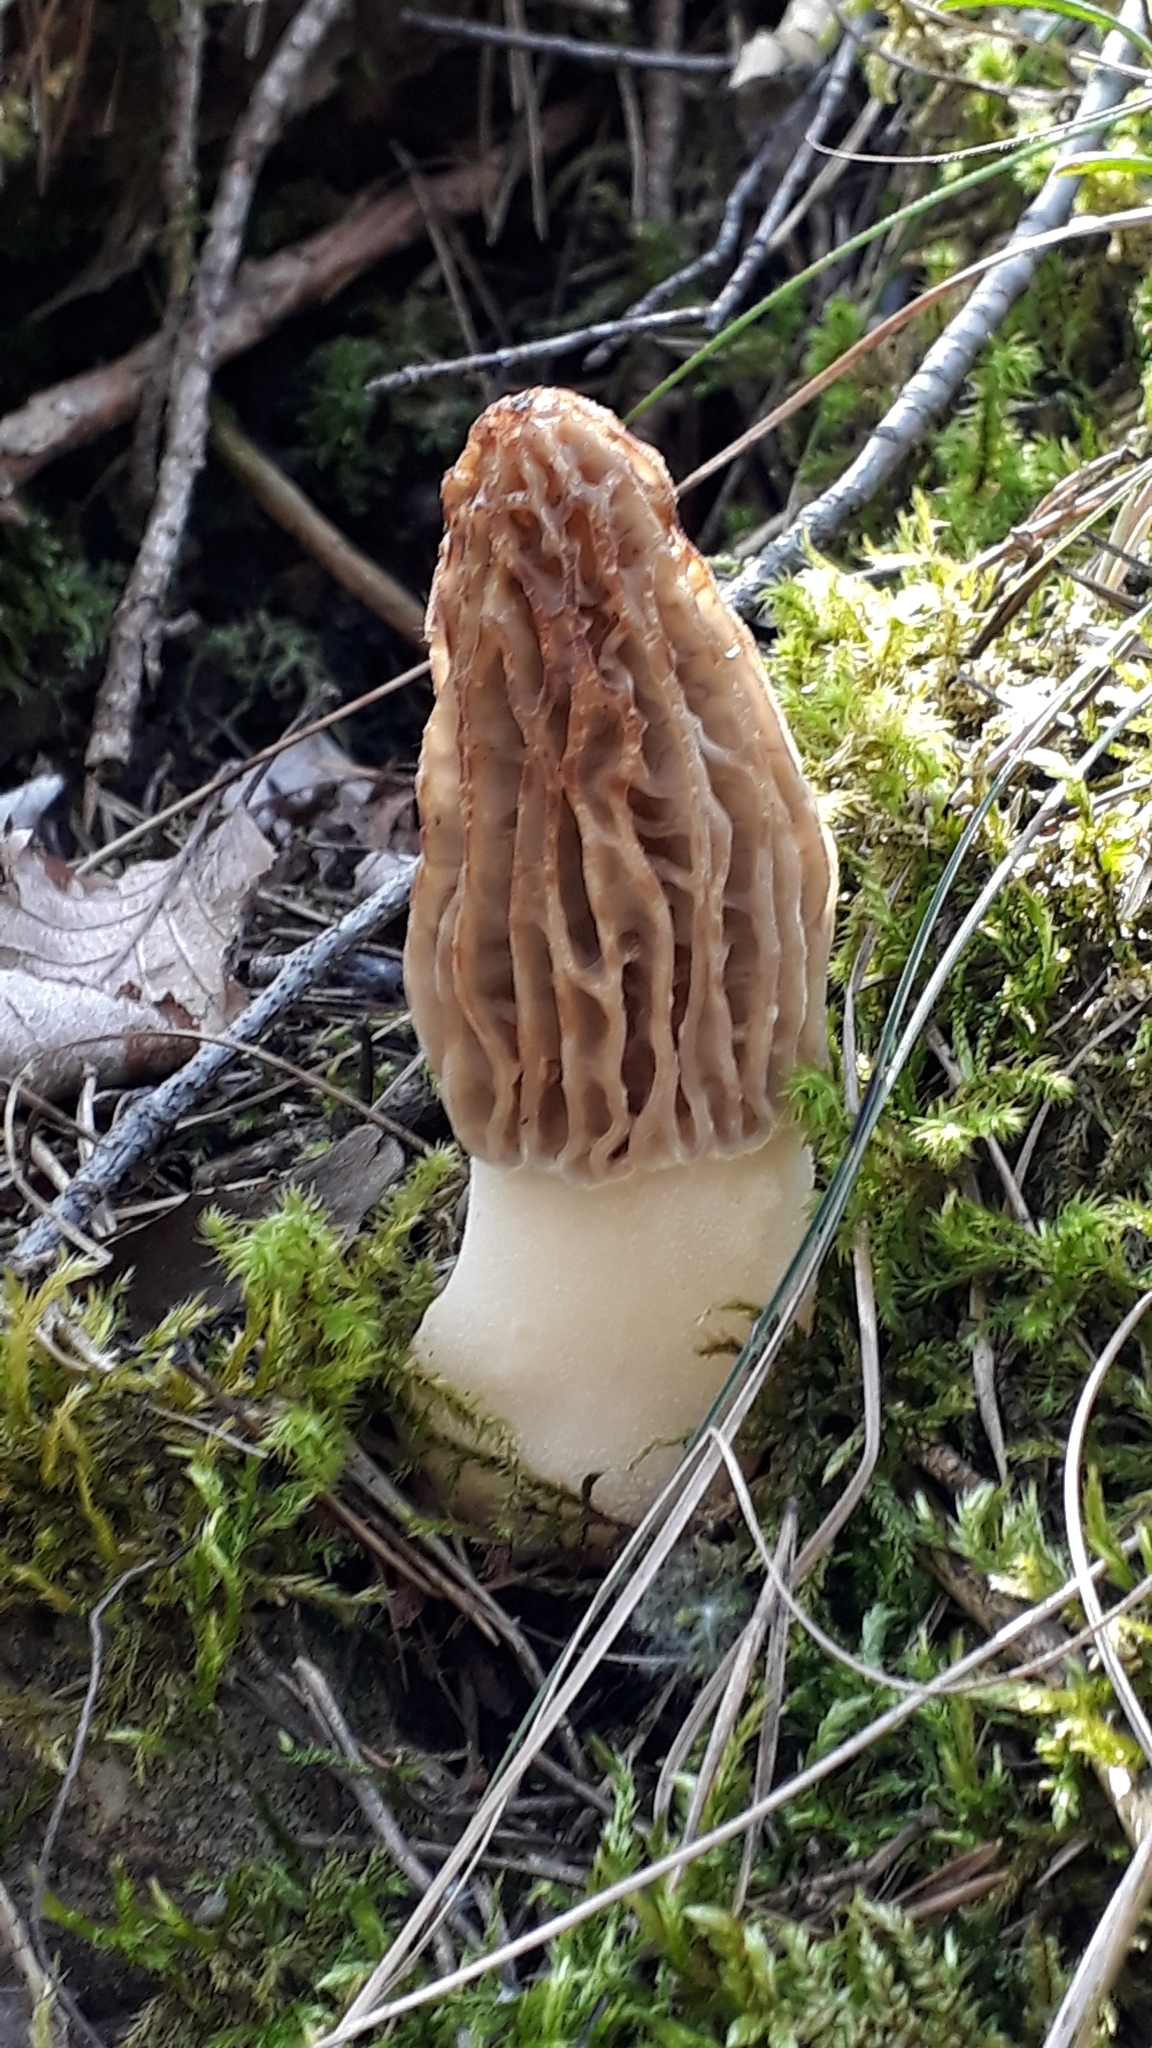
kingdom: Fungi
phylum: Ascomycota
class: Pezizomycetes
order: Pezizales
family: Morchellaceae
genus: Morchella
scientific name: Morchella tridentina
